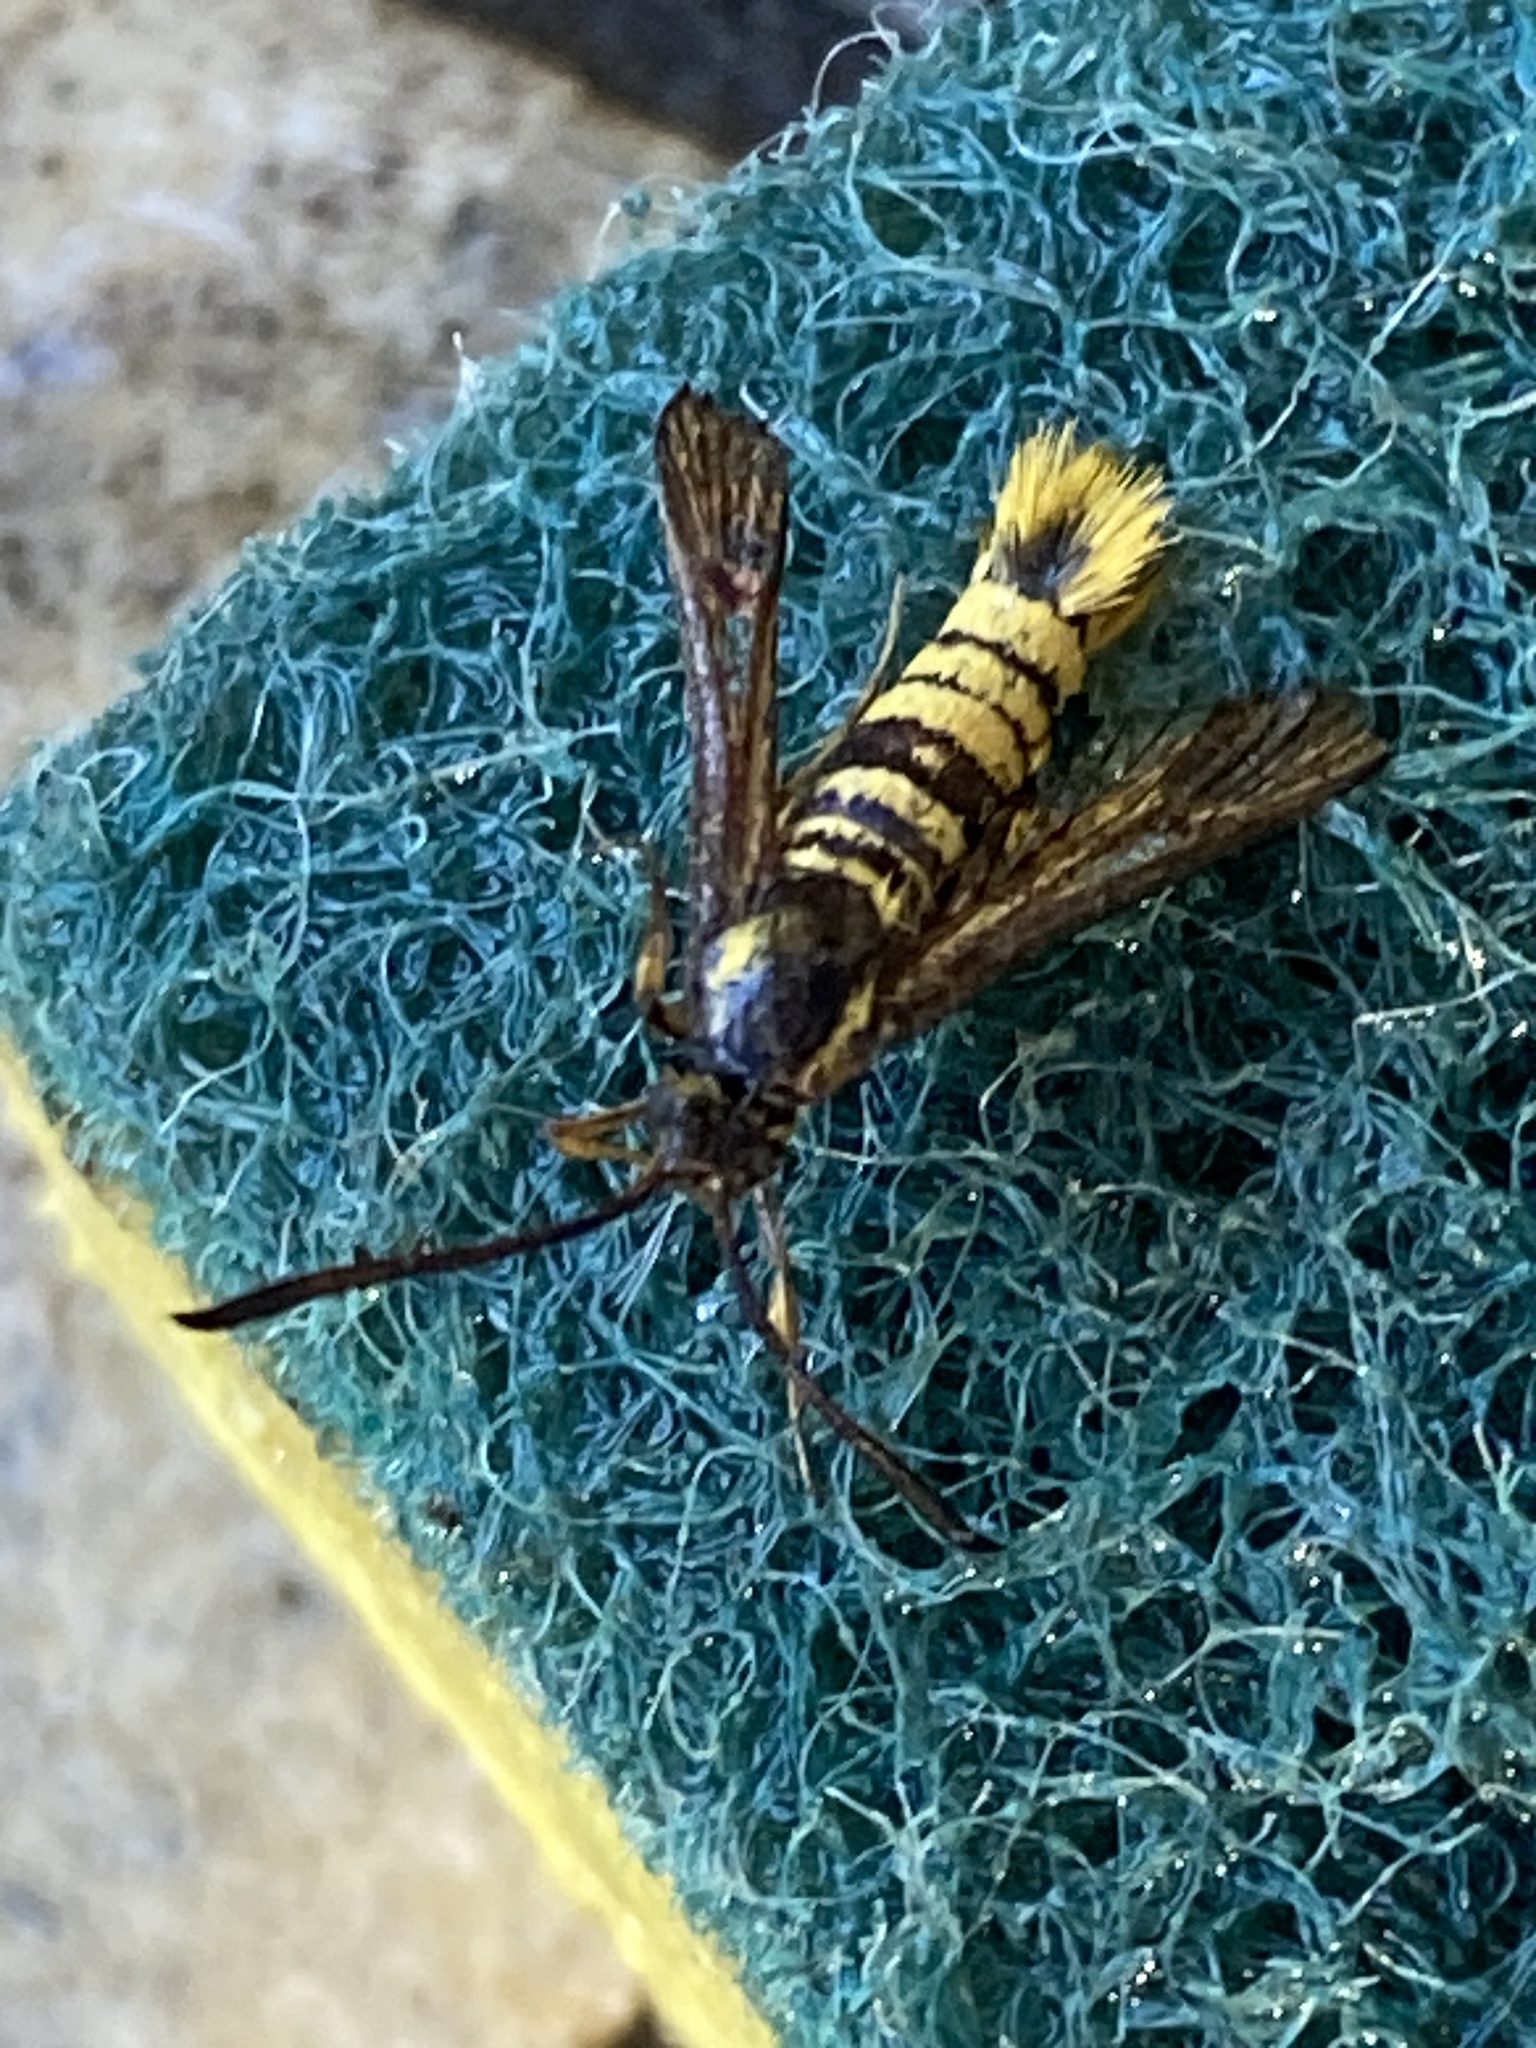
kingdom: Animalia
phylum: Arthropoda
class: Insecta
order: Lepidoptera
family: Sesiidae
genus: Synanthedon
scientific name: Synanthedon resplendens
